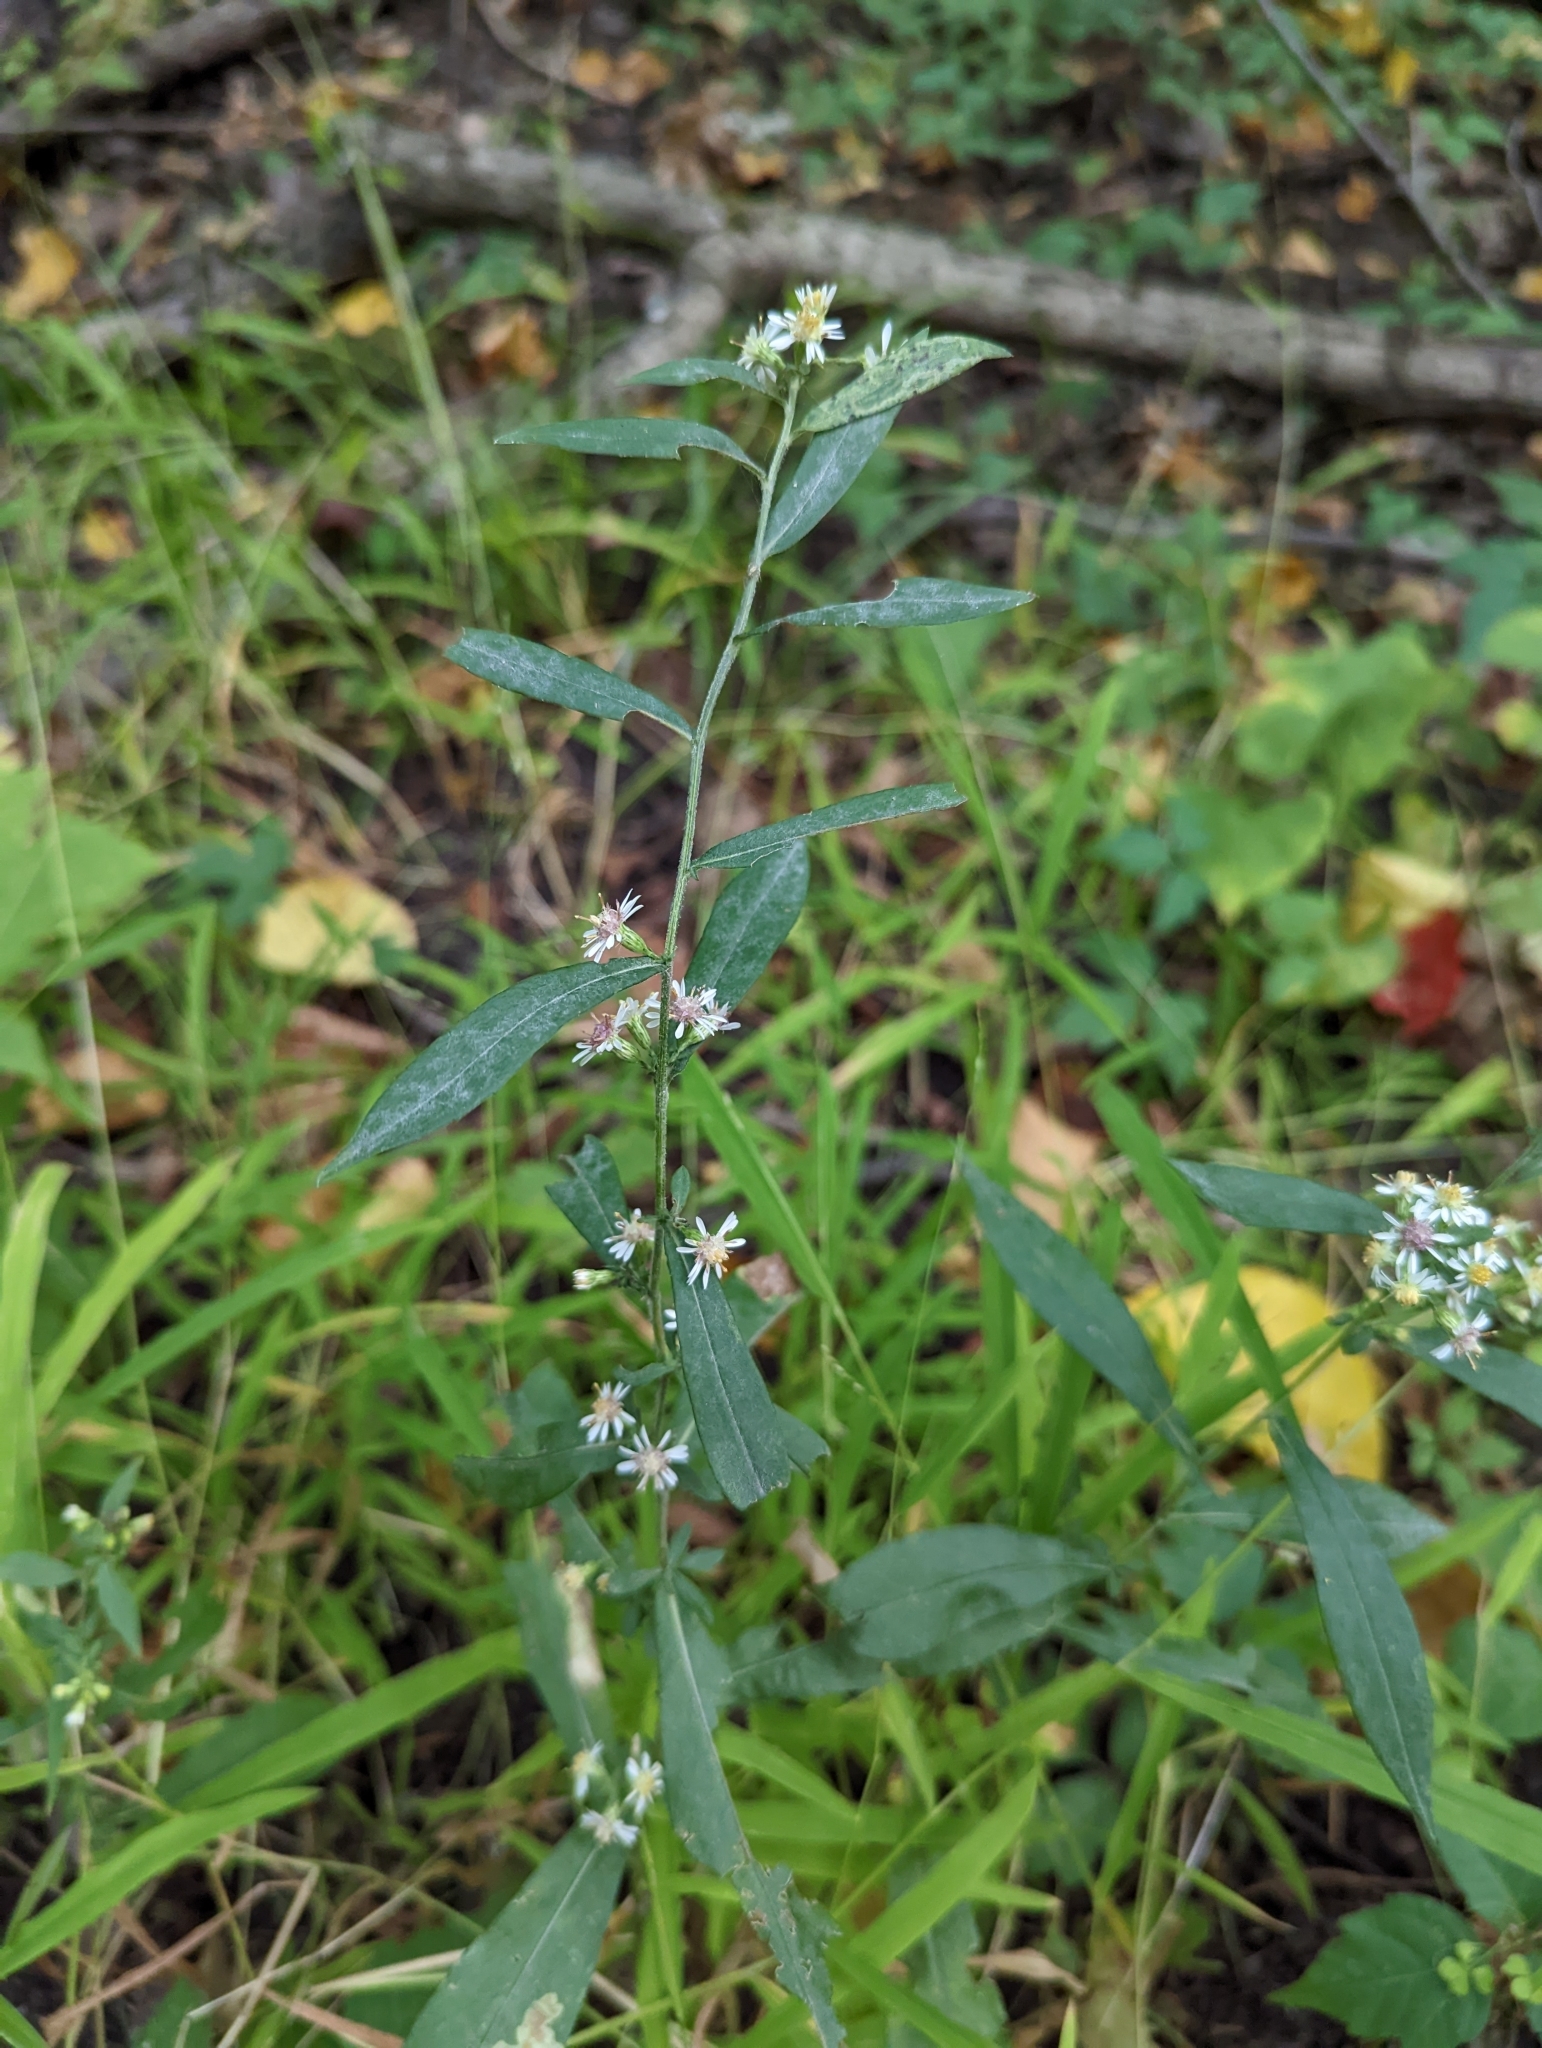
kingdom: Plantae
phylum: Tracheophyta
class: Magnoliopsida
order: Asterales
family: Asteraceae
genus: Symphyotrichum
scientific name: Symphyotrichum lateriflorum
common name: Calico aster
